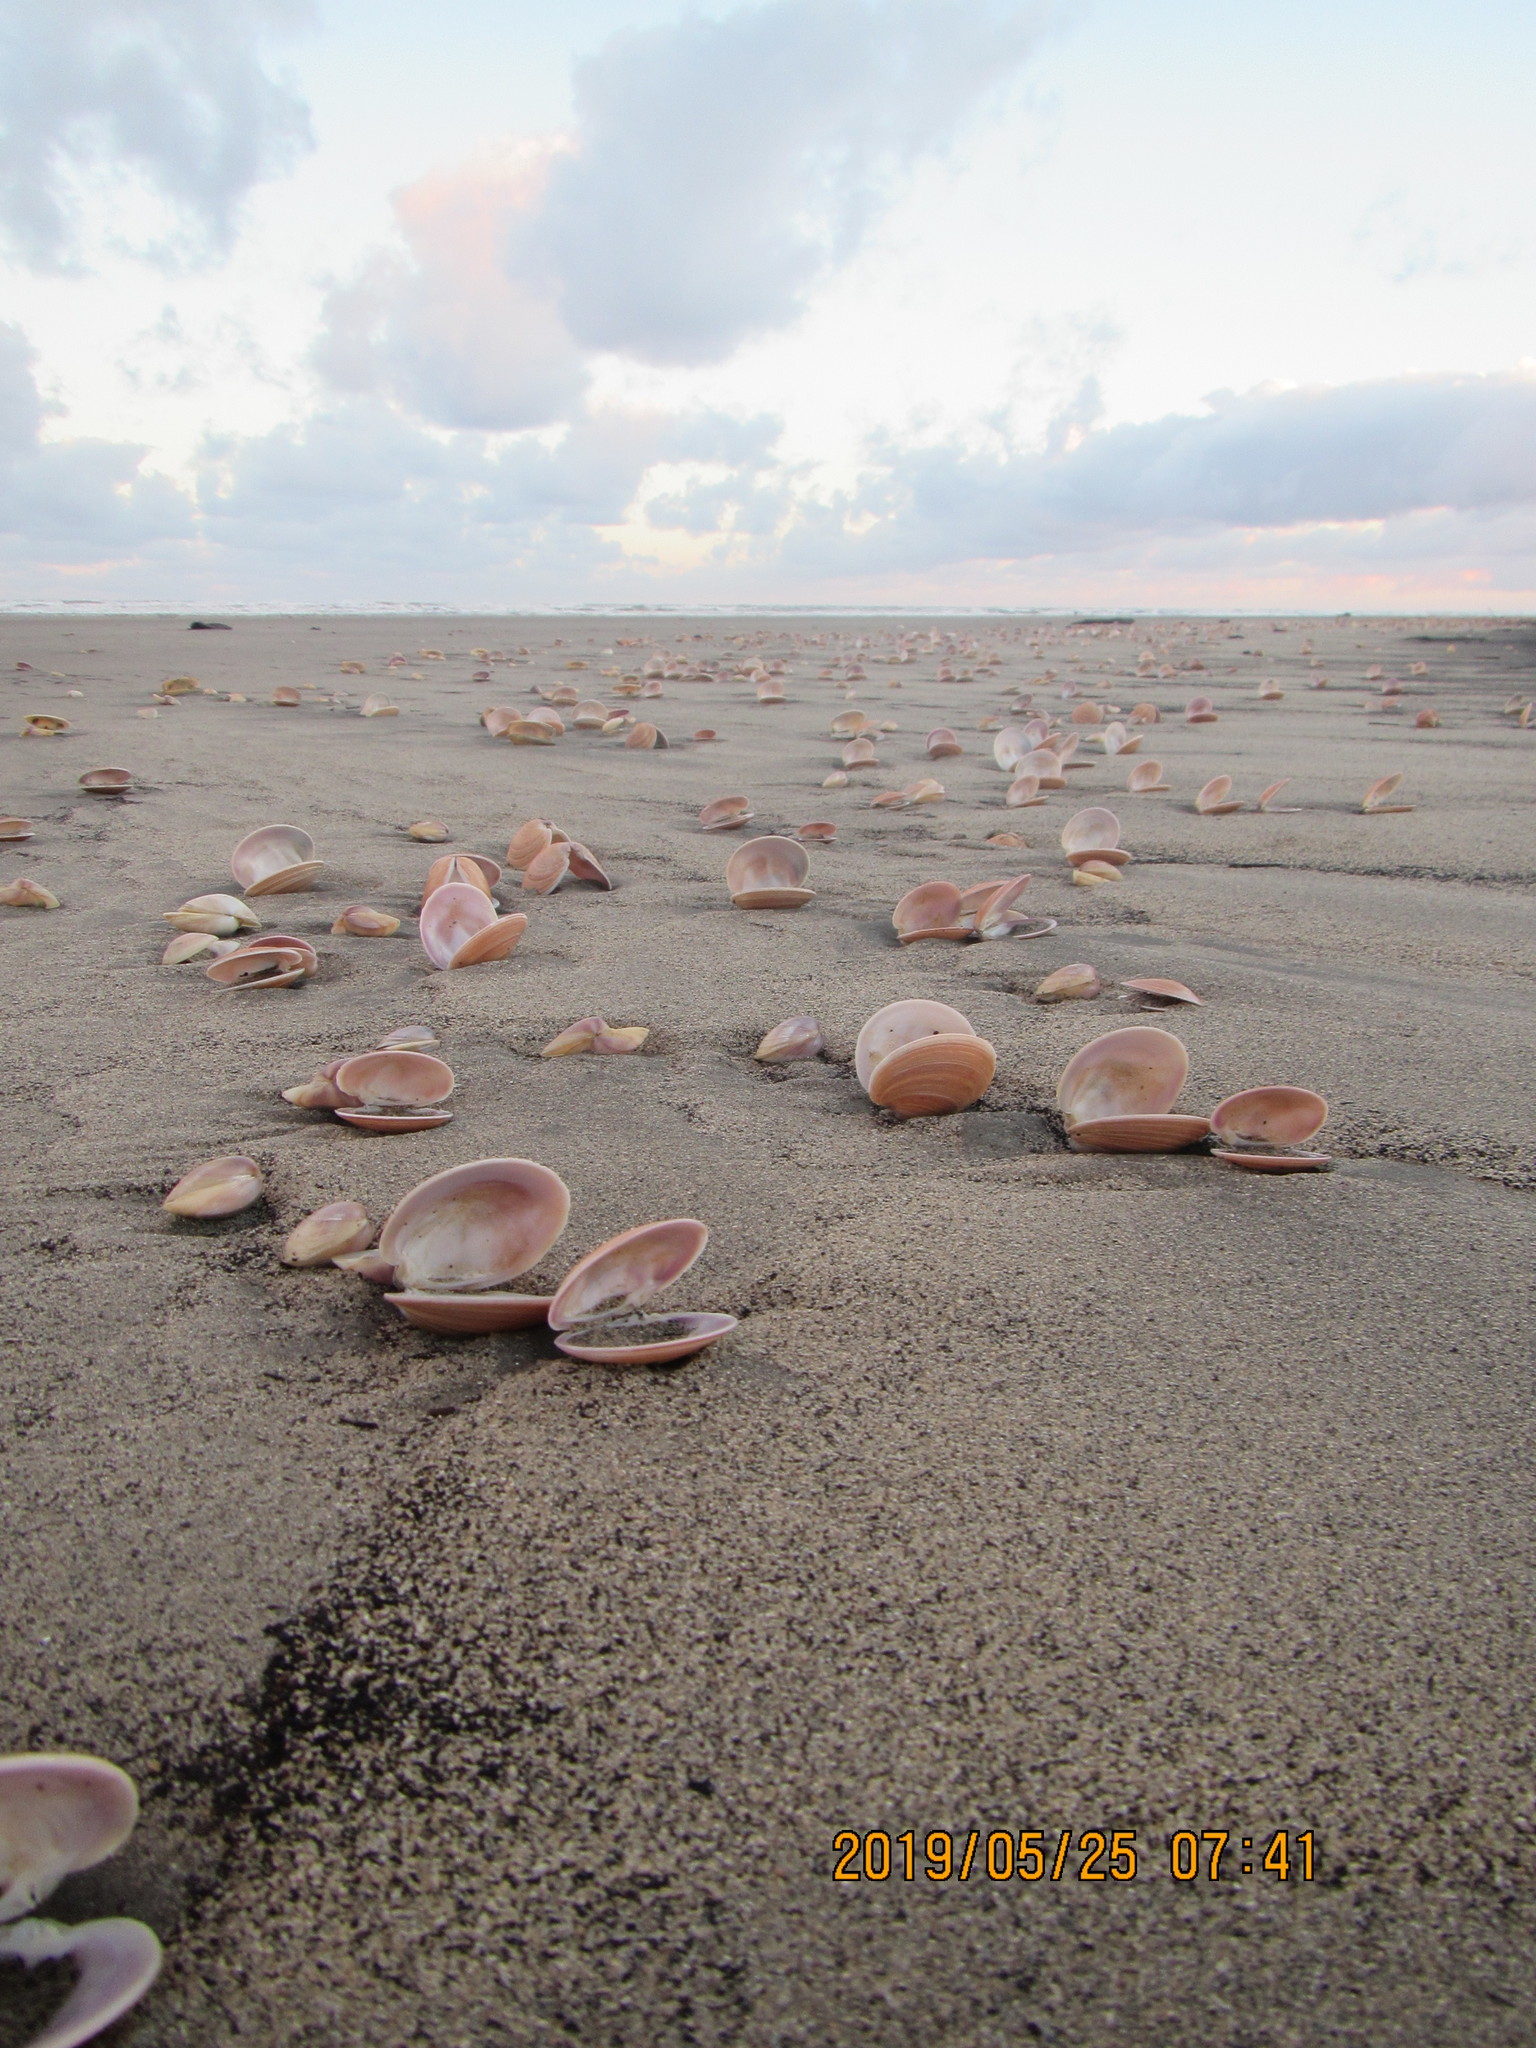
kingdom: Animalia
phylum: Mollusca
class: Bivalvia
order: Venerida
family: Veneridae
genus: Dosinia
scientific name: Dosinia anus
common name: Old-woman dosinia
